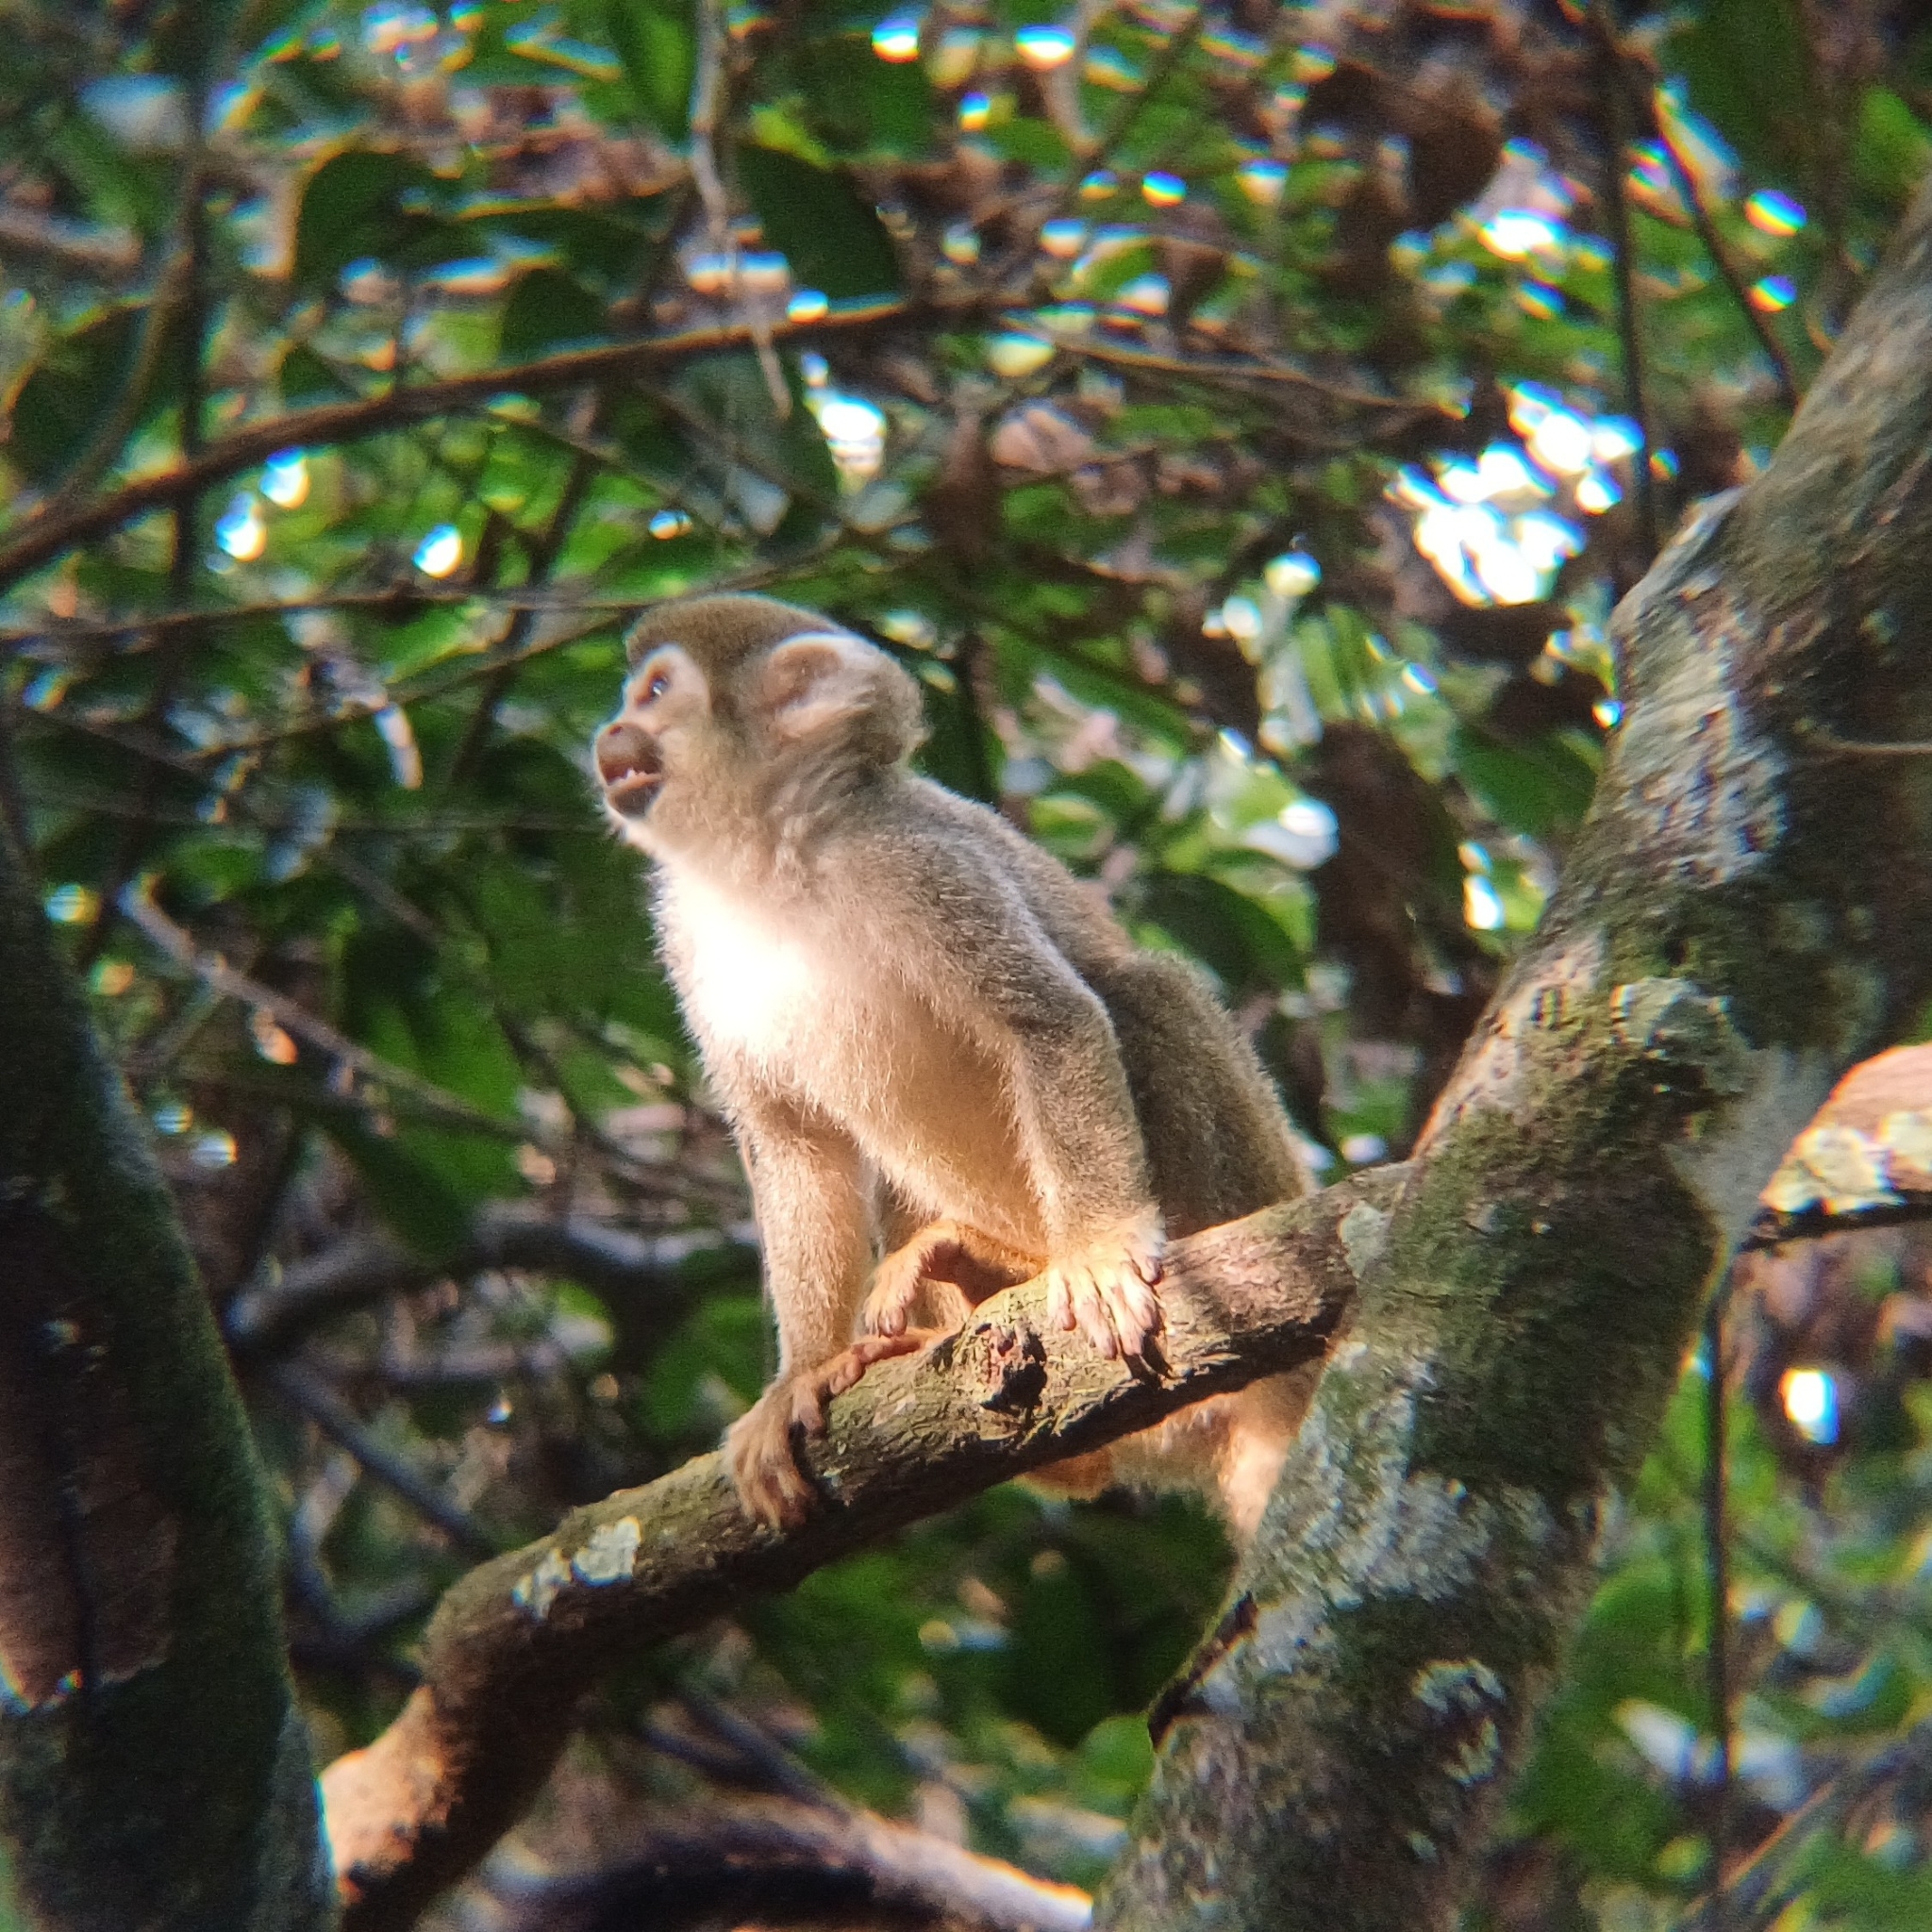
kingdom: Animalia
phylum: Chordata
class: Mammalia
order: Primates
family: Cebidae
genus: Saimiri
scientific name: Saimiri cassiquiarensis
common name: Humboldt’s squirrel monkey
